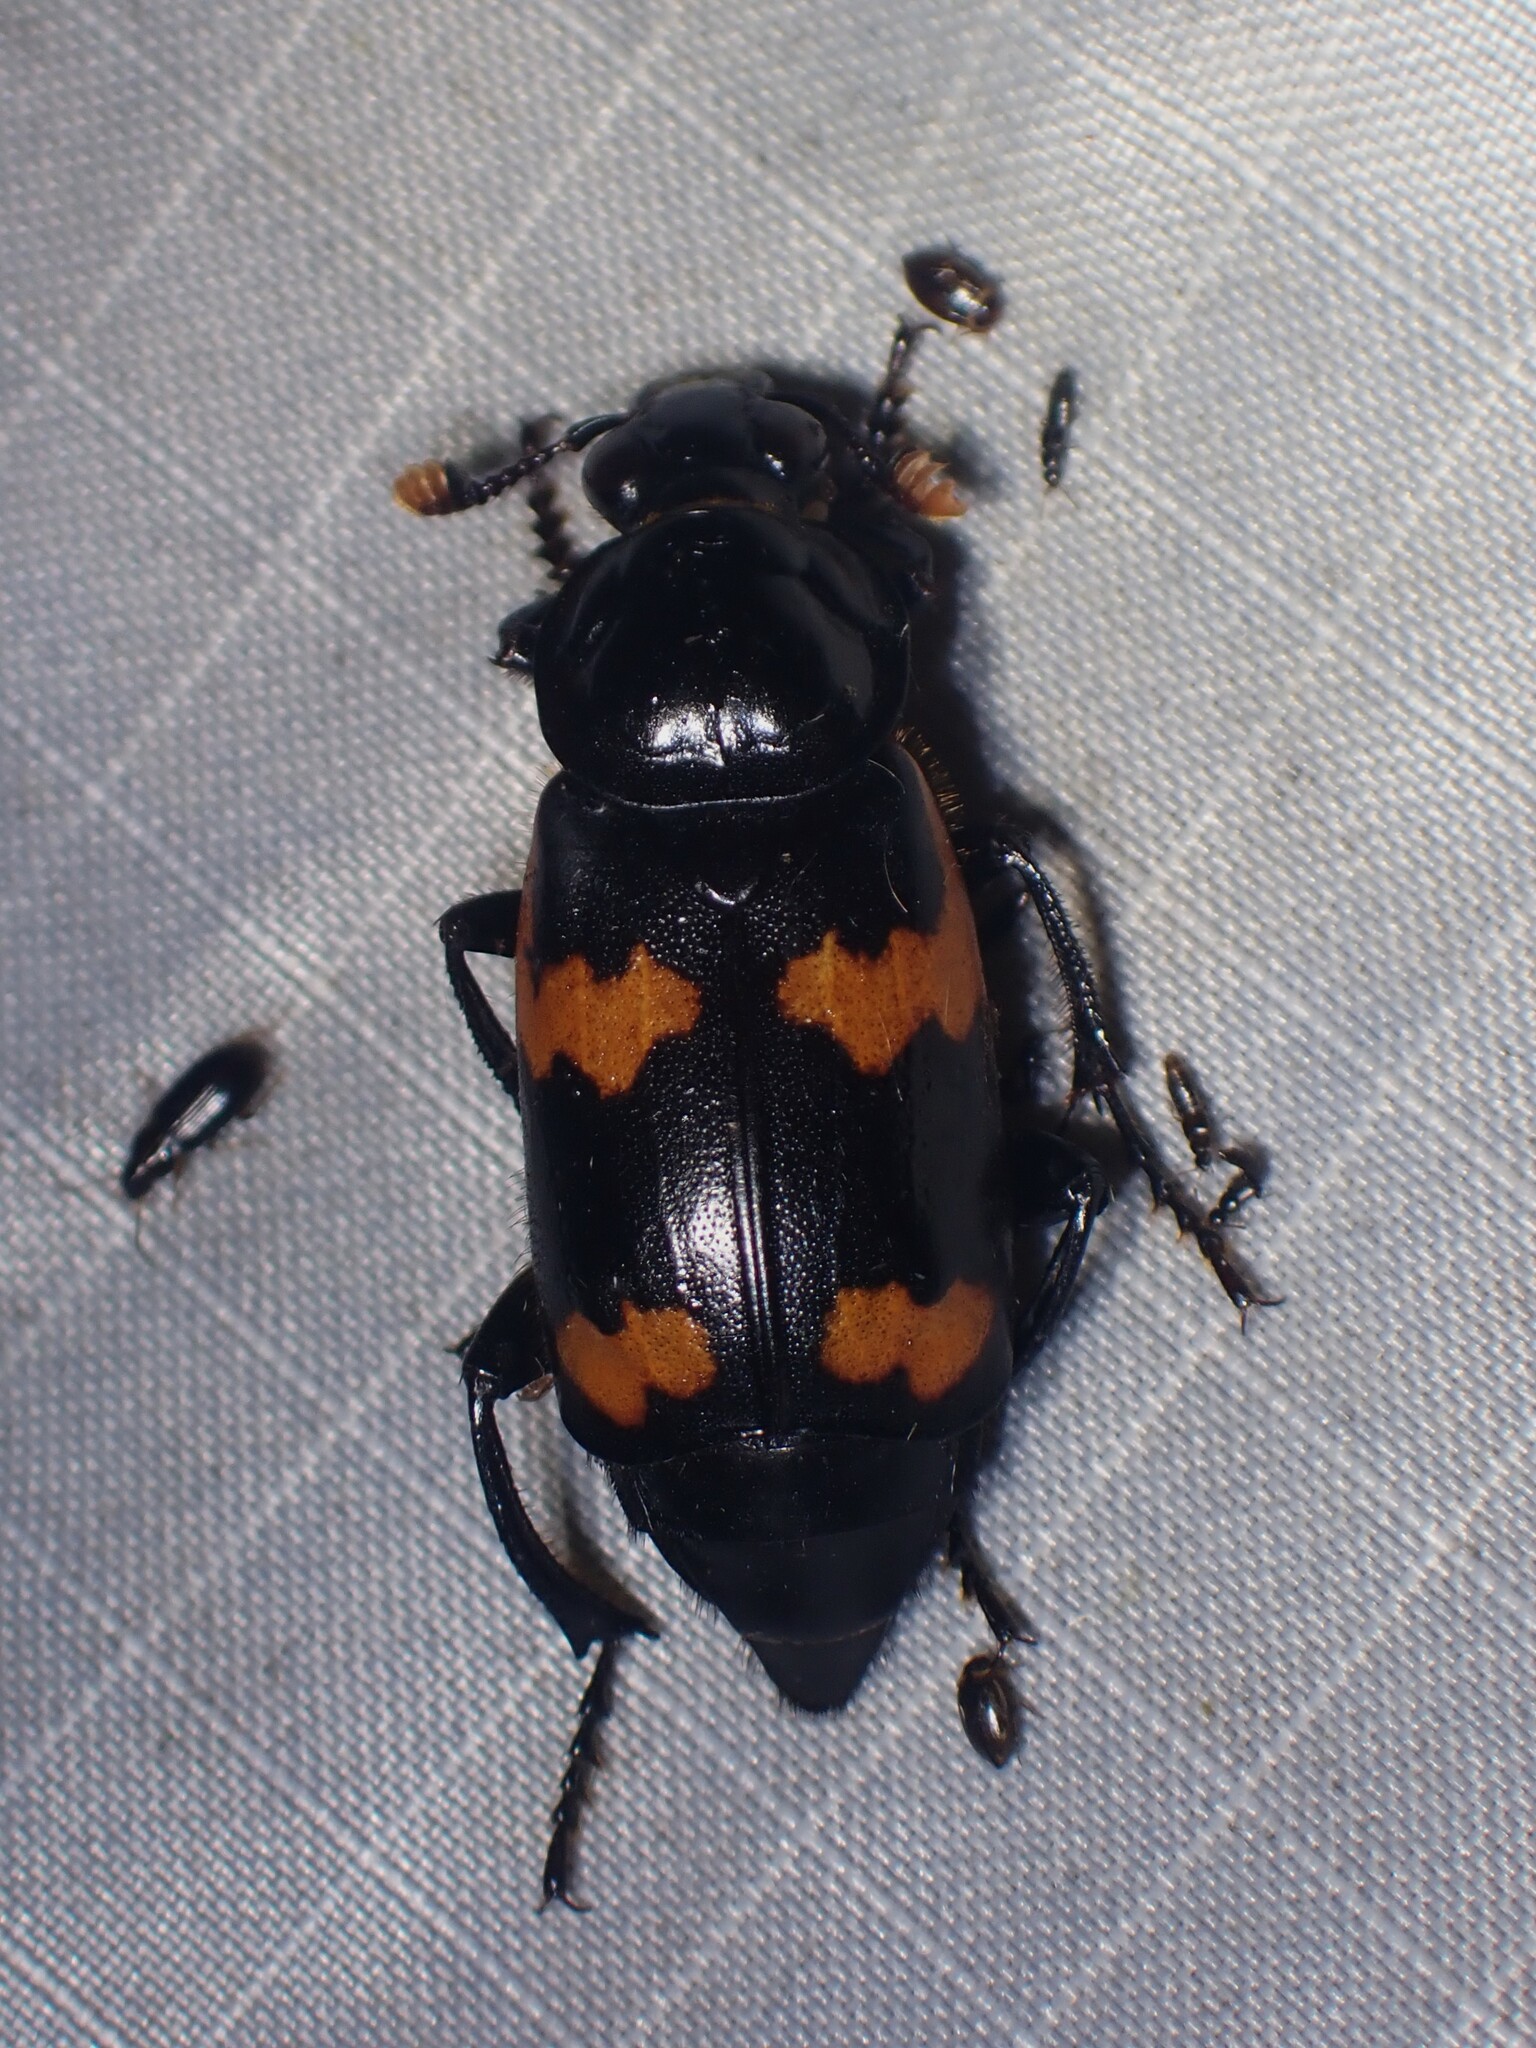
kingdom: Animalia
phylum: Arthropoda
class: Insecta
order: Coleoptera
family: Staphylinidae
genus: Nicrophorus
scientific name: Nicrophorus sayi
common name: Say's burying beetle
